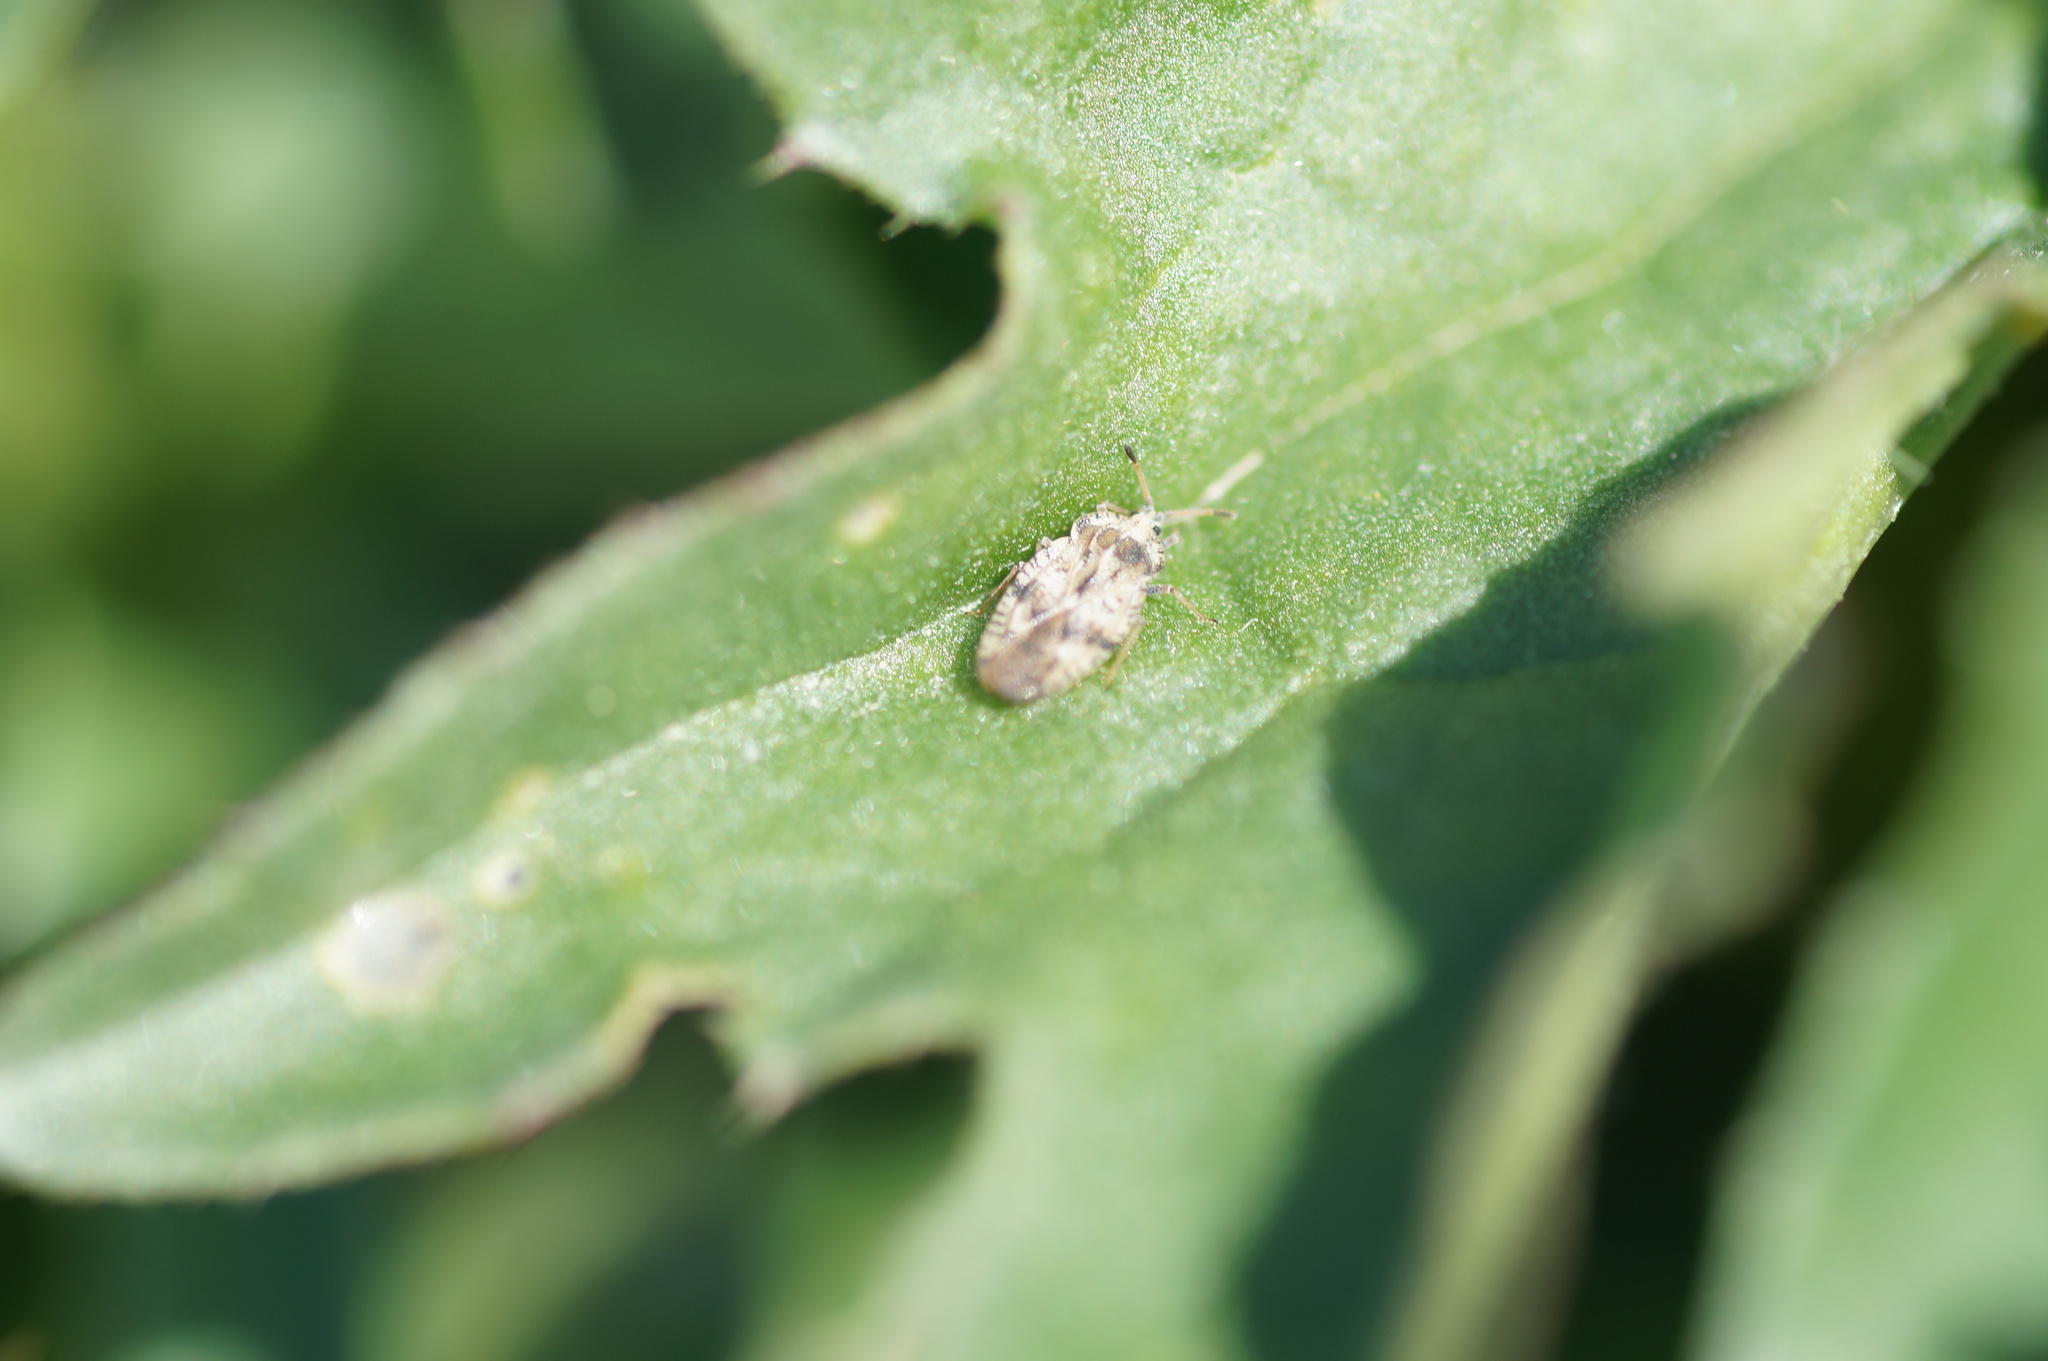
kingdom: Animalia
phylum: Arthropoda
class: Insecta
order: Hemiptera
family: Tingidae
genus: Tingis
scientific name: Tingis cardui
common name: Spear thistle lacebug
